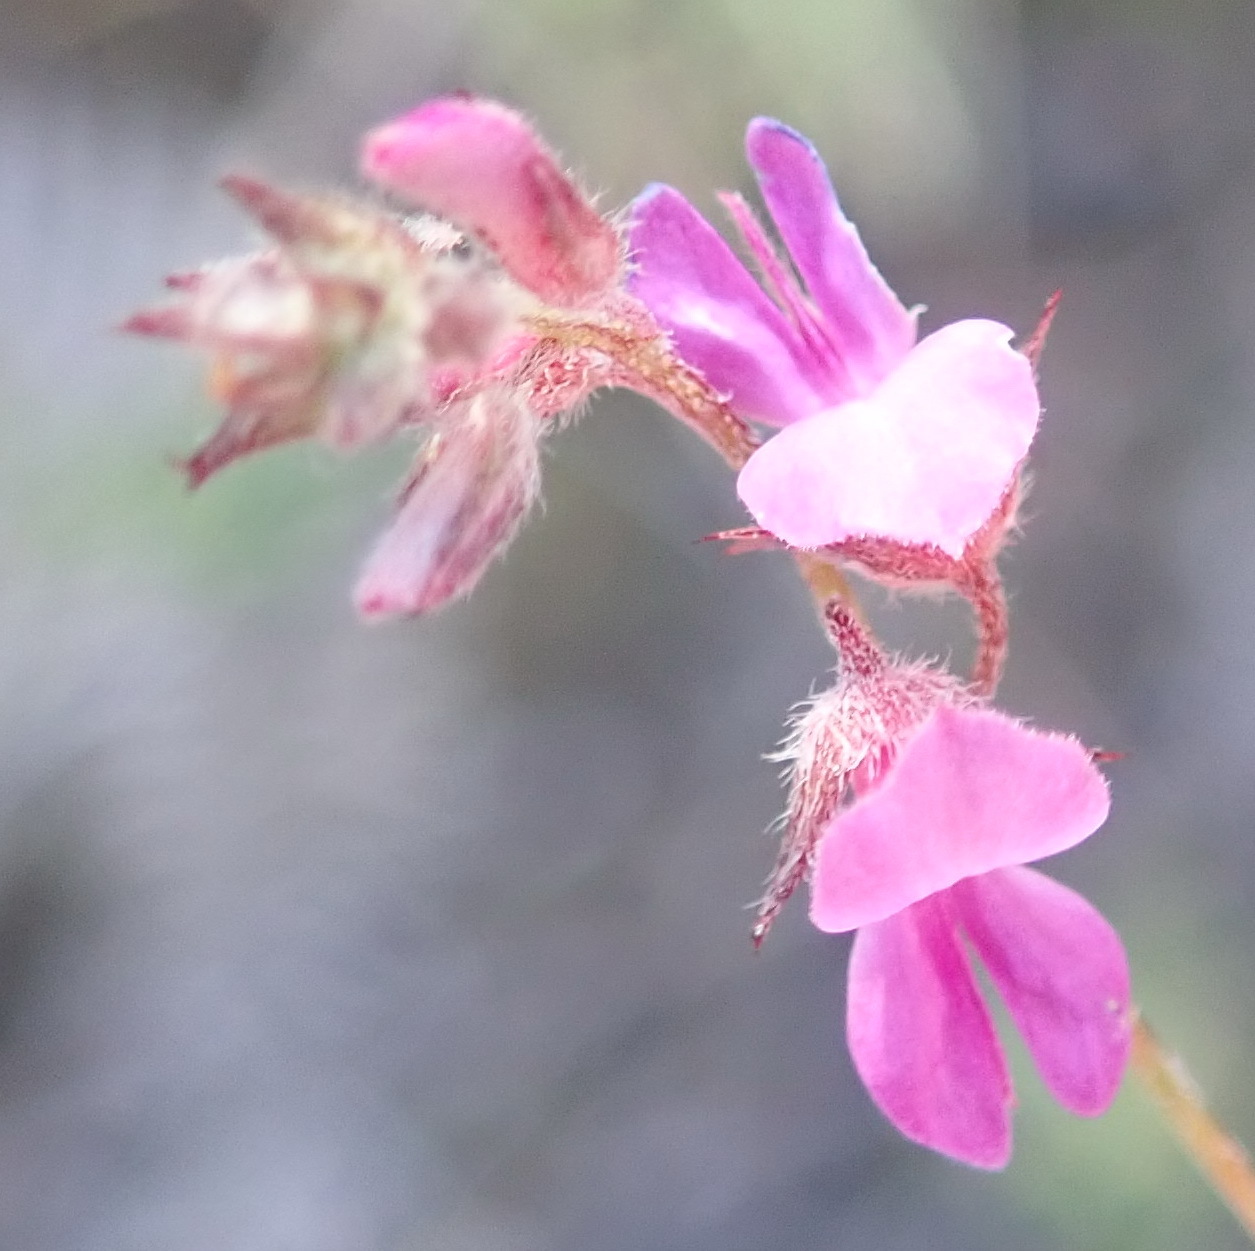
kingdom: Plantae
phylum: Tracheophyta
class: Magnoliopsida
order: Fabales
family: Fabaceae
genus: Indigofera
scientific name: Indigofera alopecuroides
